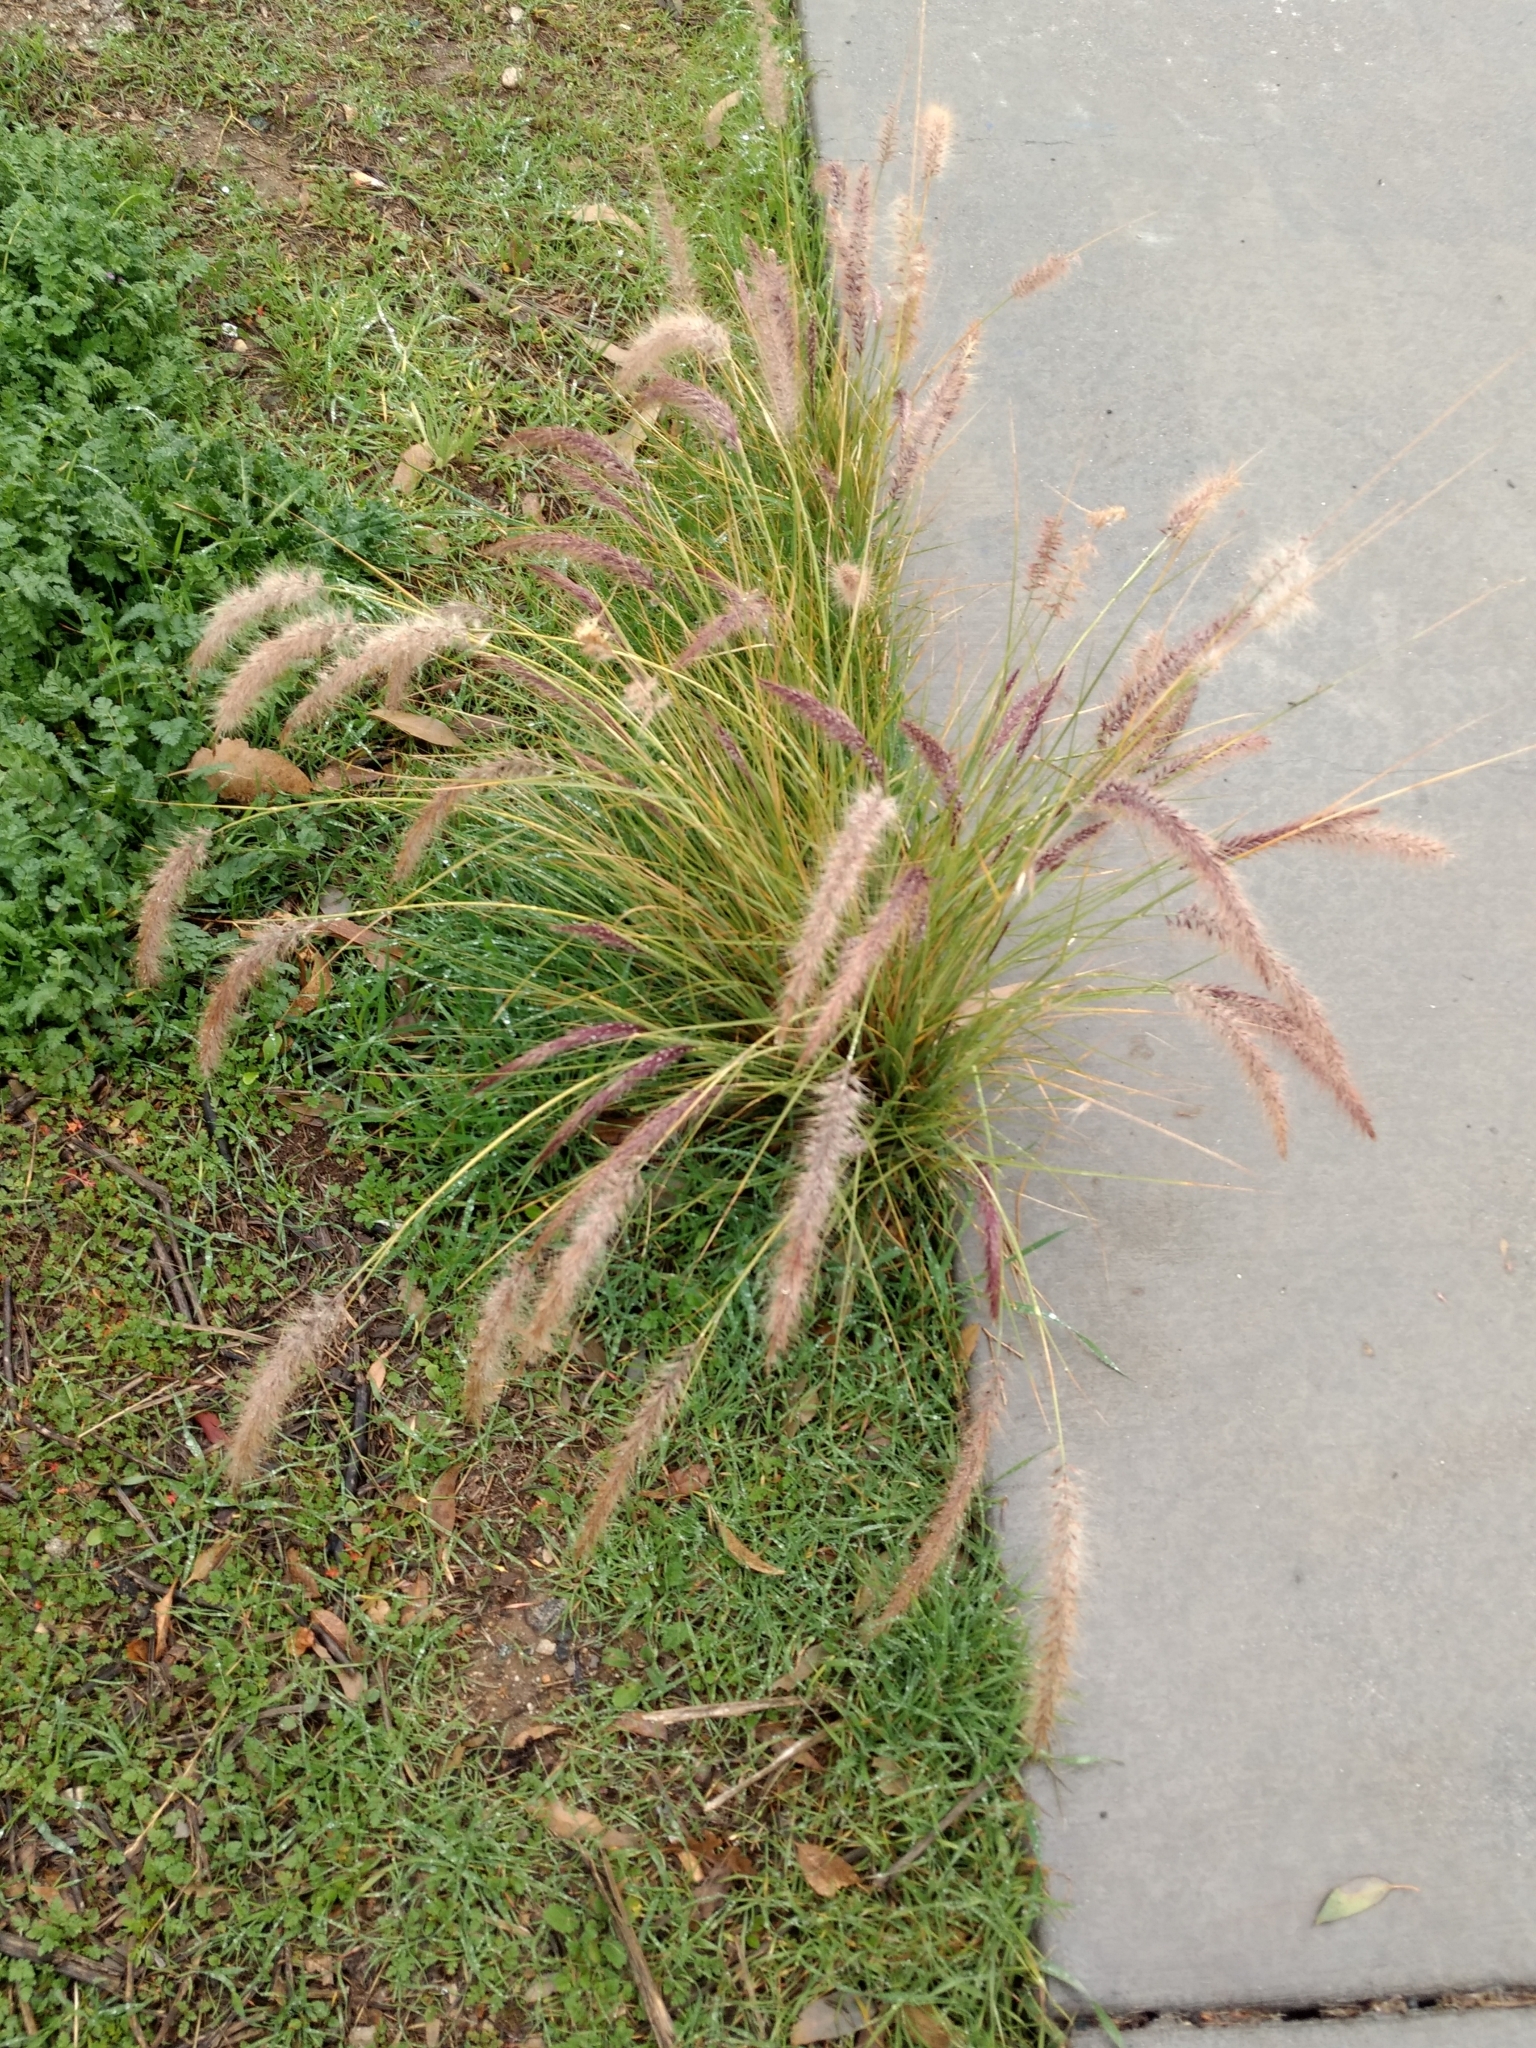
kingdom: Plantae
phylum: Tracheophyta
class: Liliopsida
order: Poales
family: Poaceae
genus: Cenchrus
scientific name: Cenchrus setaceus
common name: Crimson fountaingrass
